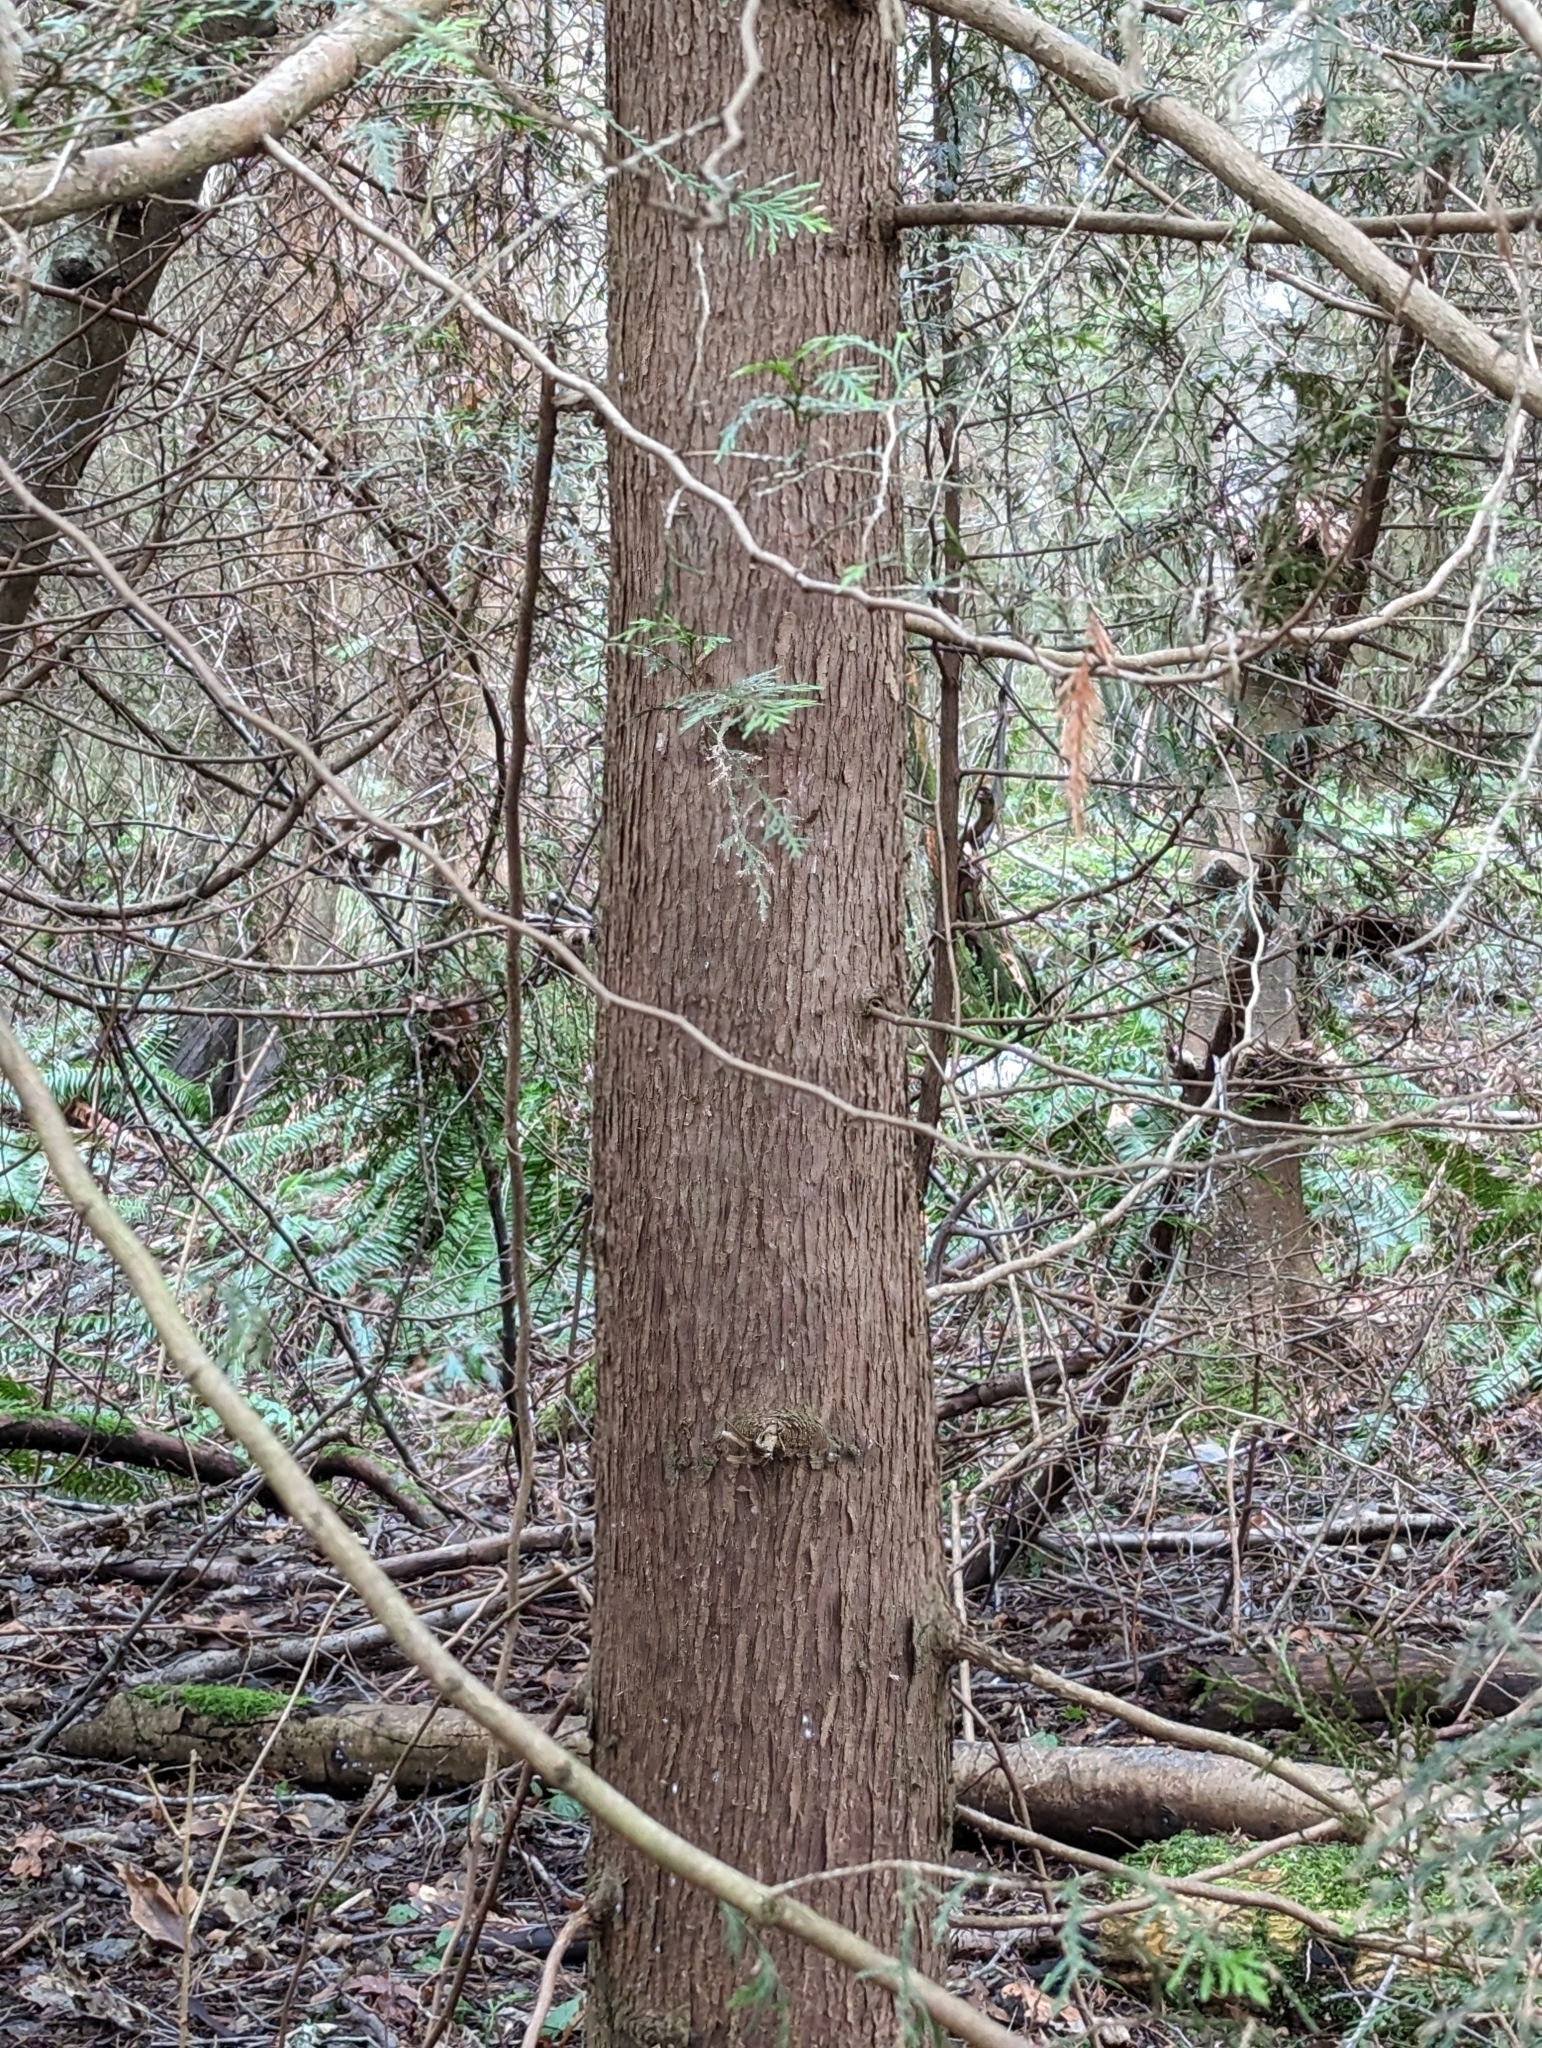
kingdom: Plantae
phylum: Tracheophyta
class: Pinopsida
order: Pinales
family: Cupressaceae
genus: Thuja
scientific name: Thuja plicata
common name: Western red-cedar
